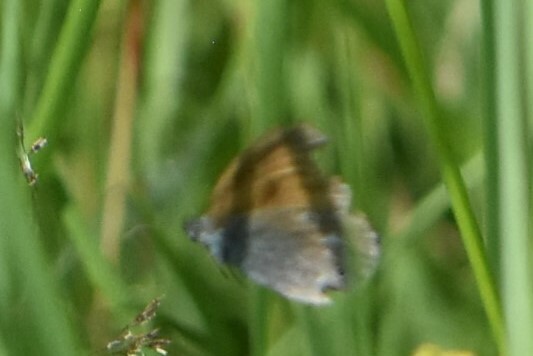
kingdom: Animalia
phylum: Arthropoda
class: Insecta
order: Lepidoptera
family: Nymphalidae
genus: Coenonympha
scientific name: Coenonympha iphis
